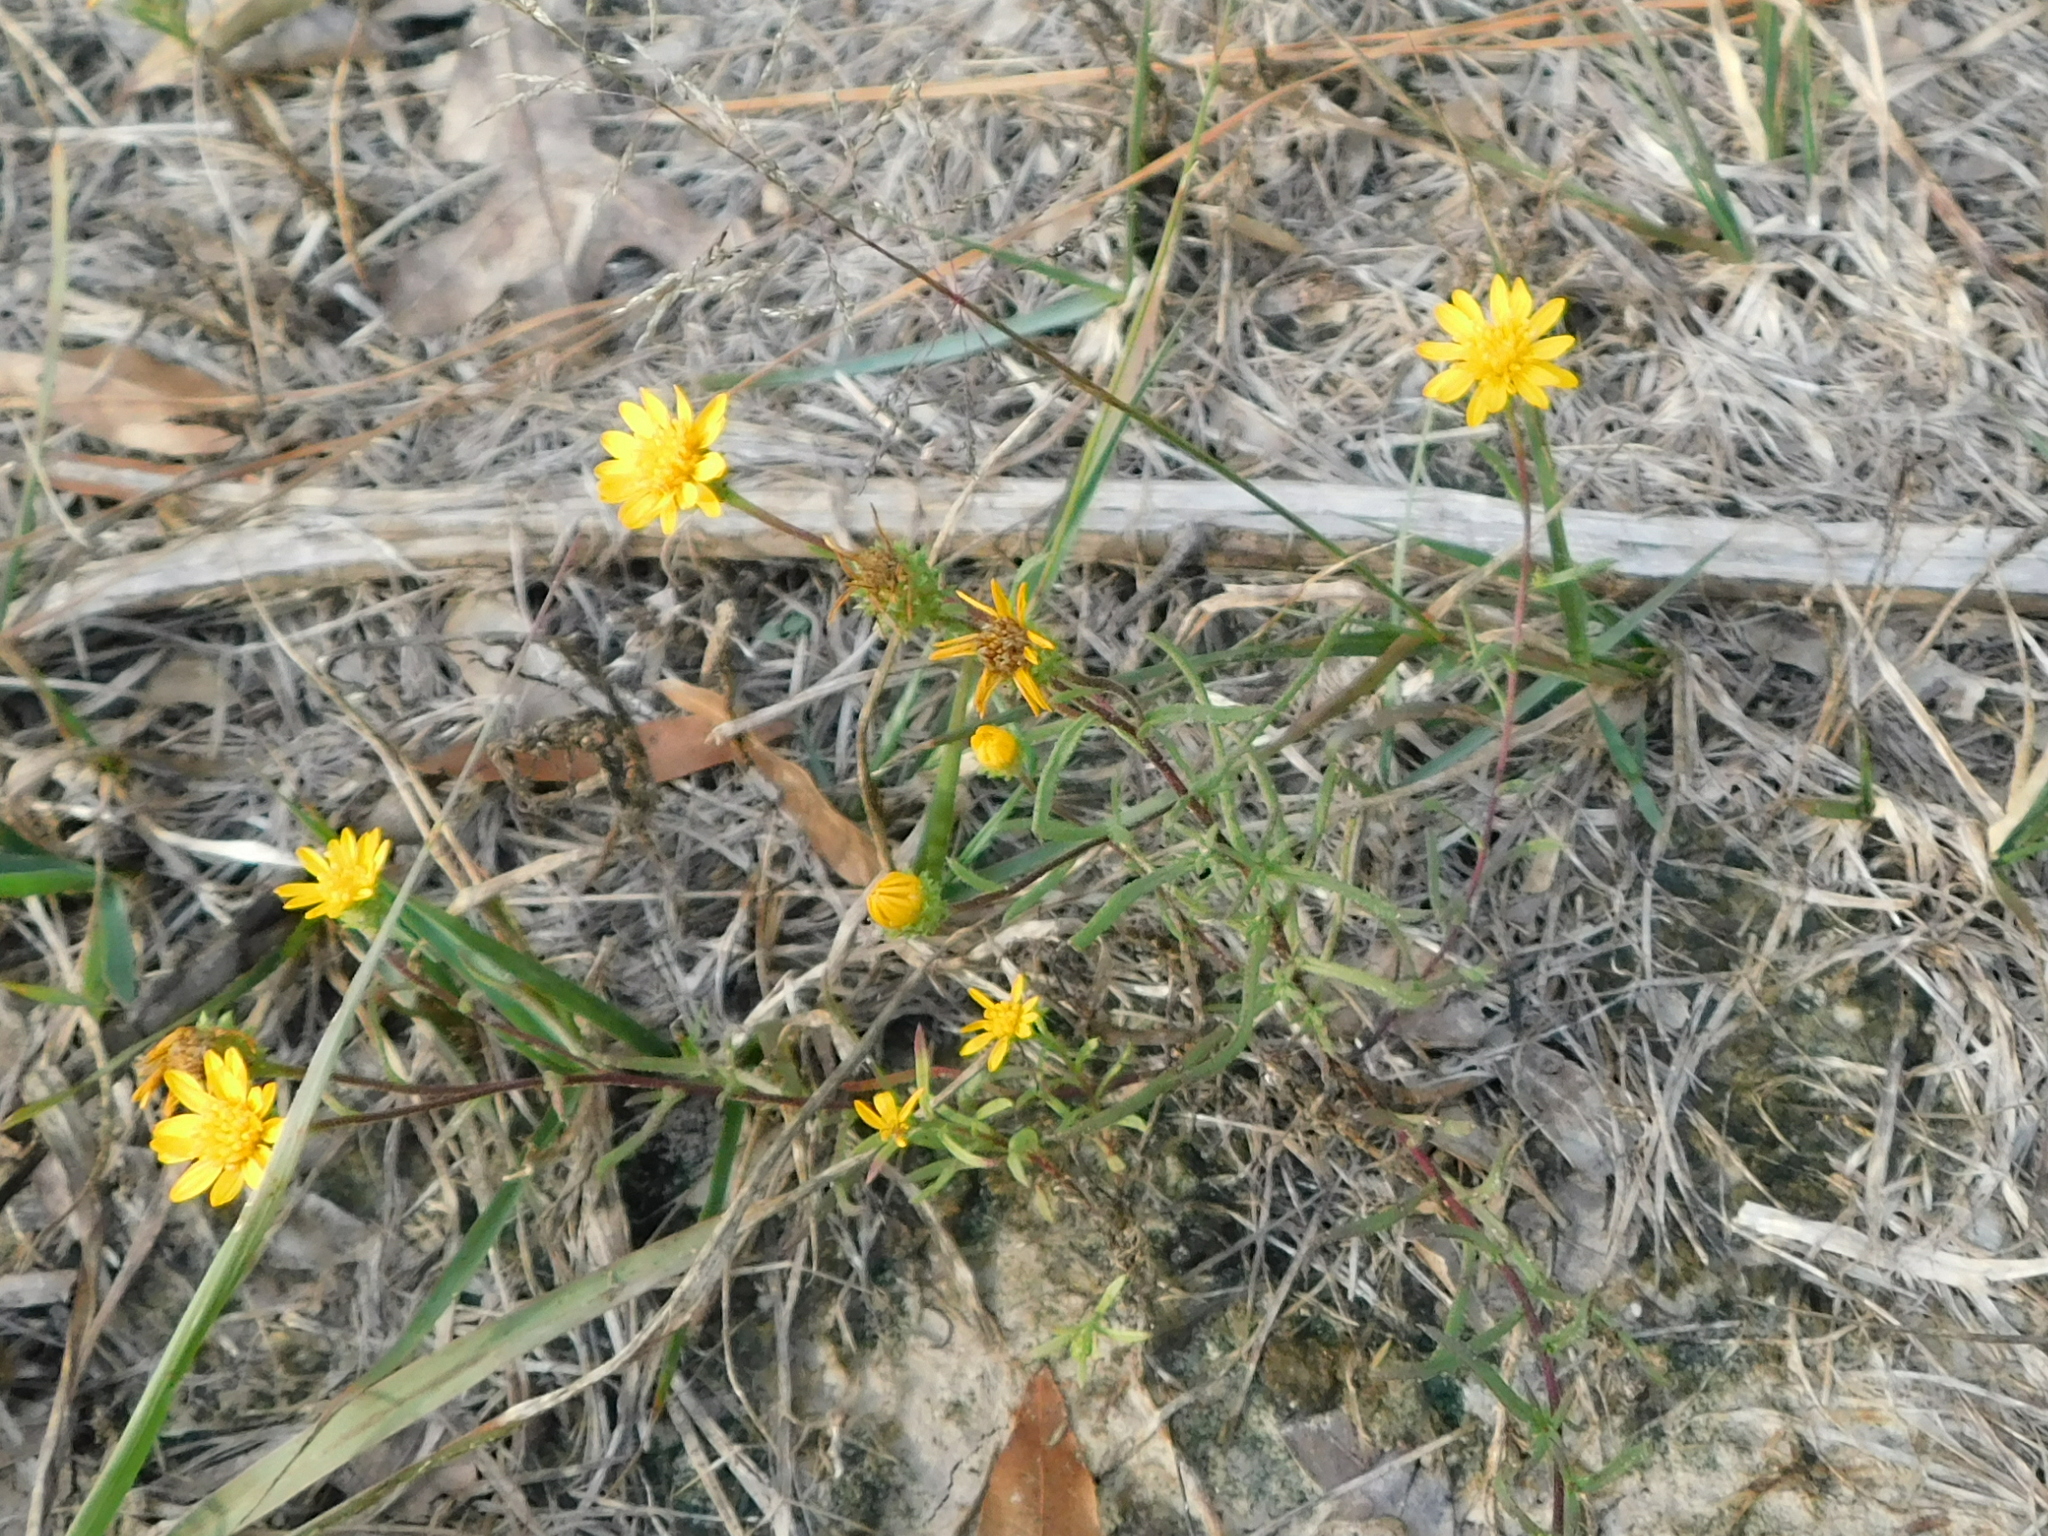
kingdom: Plantae
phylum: Tracheophyta
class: Magnoliopsida
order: Asterales
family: Asteraceae
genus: Rayjacksonia
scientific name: Rayjacksonia aurea
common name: Houston camphor daisy
